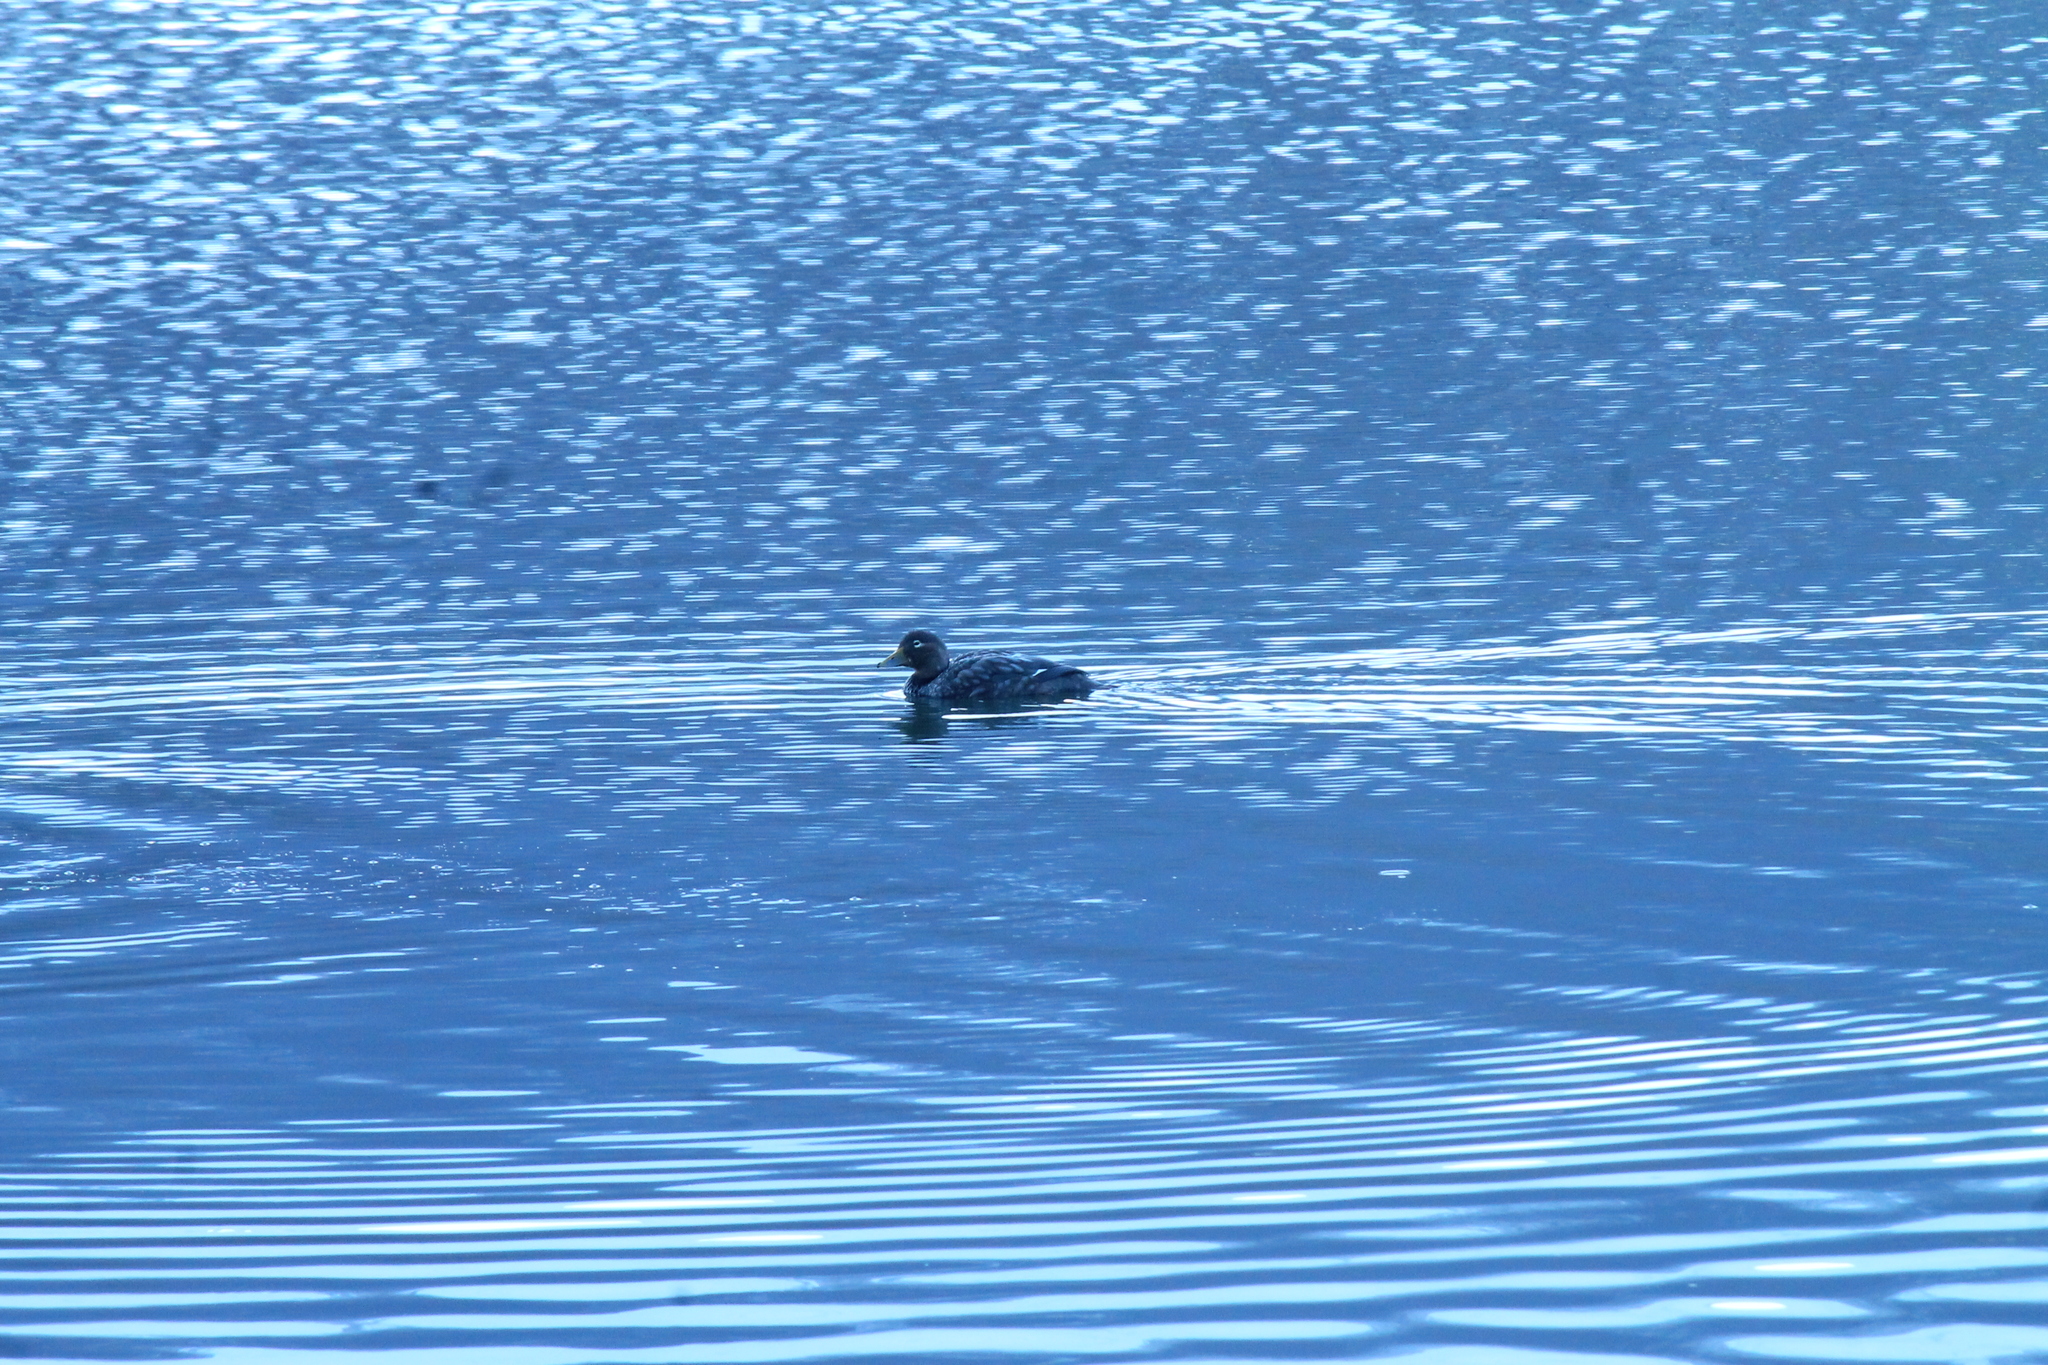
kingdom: Animalia
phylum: Chordata
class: Aves
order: Anseriformes
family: Anatidae
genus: Tachyeres
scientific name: Tachyeres patachonicus
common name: Flying steamer duck
